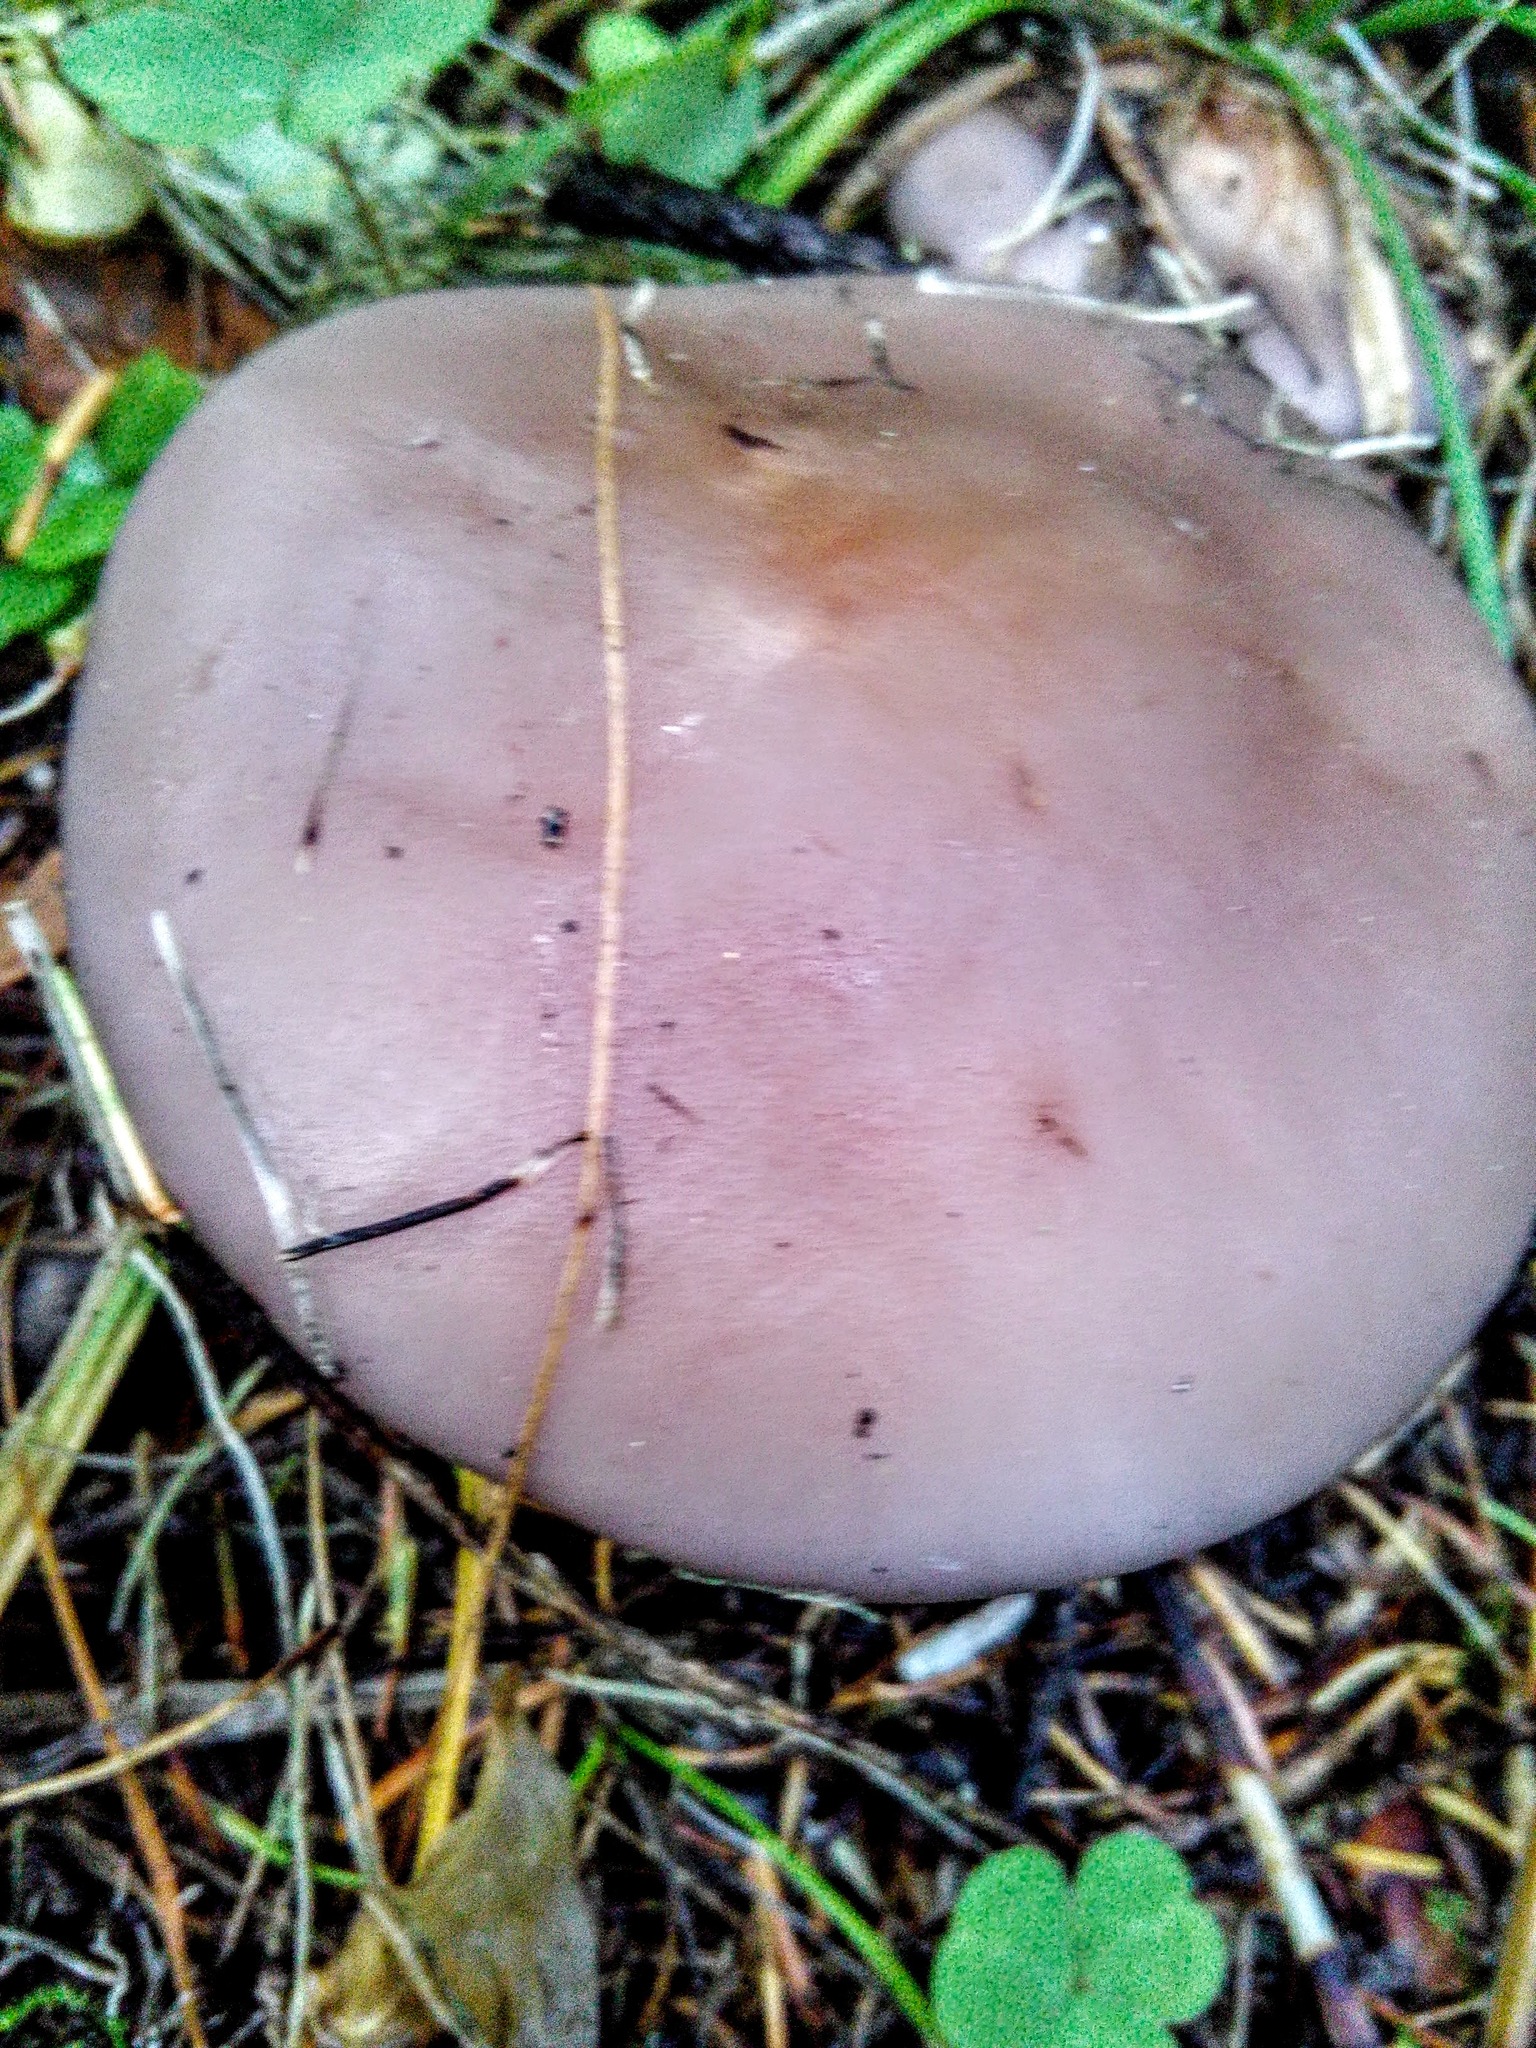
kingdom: Fungi
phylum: Basidiomycota
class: Agaricomycetes
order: Agaricales
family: Tricholomataceae
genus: Collybia
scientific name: Collybia
